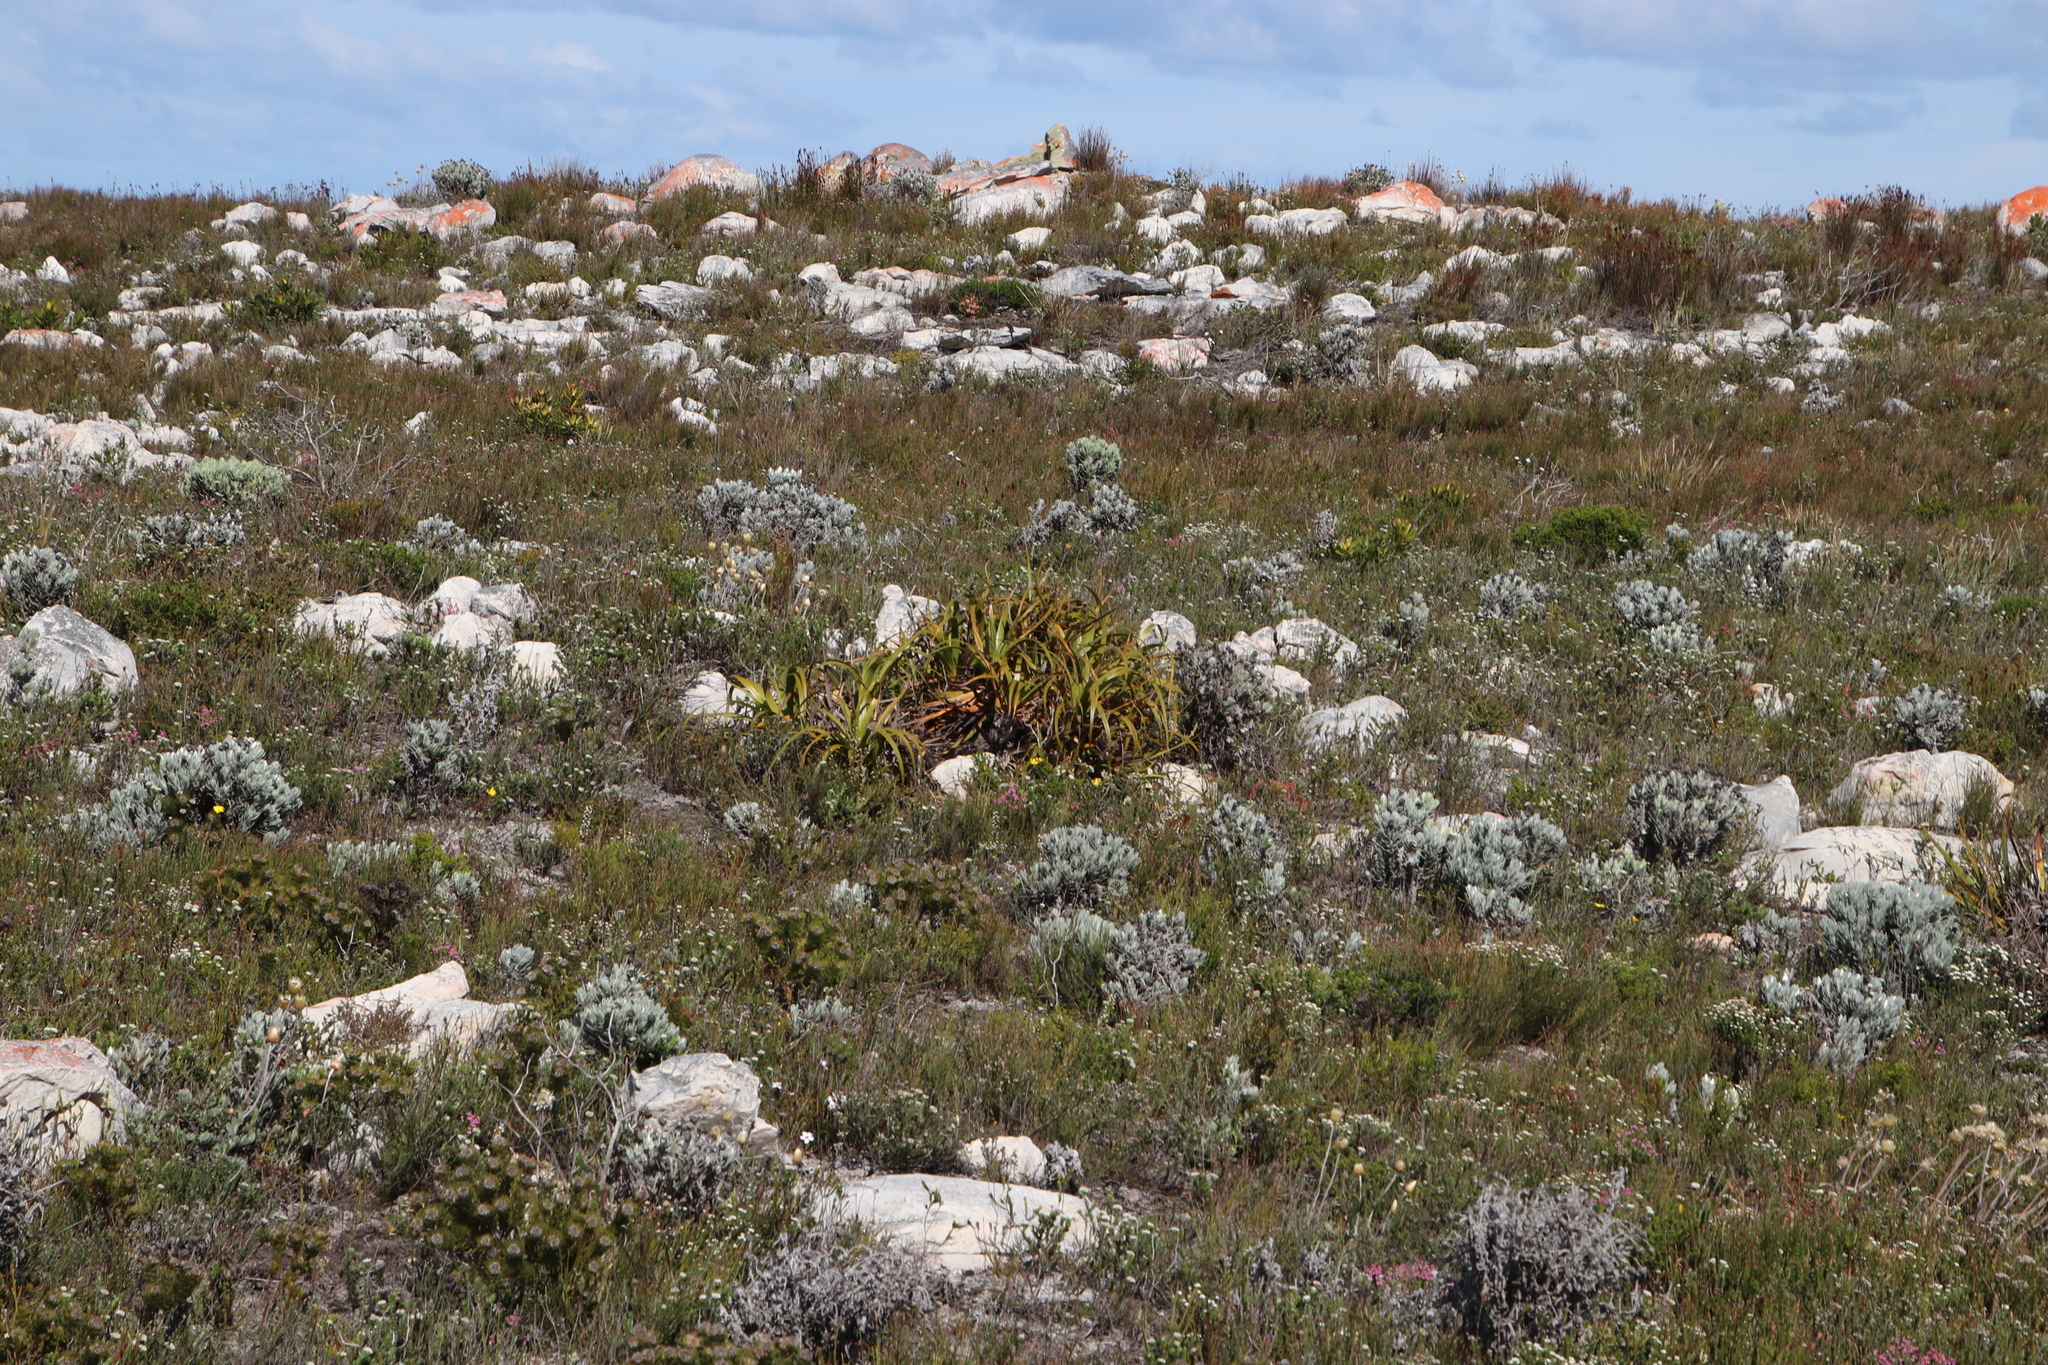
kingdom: Plantae
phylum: Tracheophyta
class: Liliopsida
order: Poales
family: Cyperaceae
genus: Tetraria
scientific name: Tetraria thermalis
